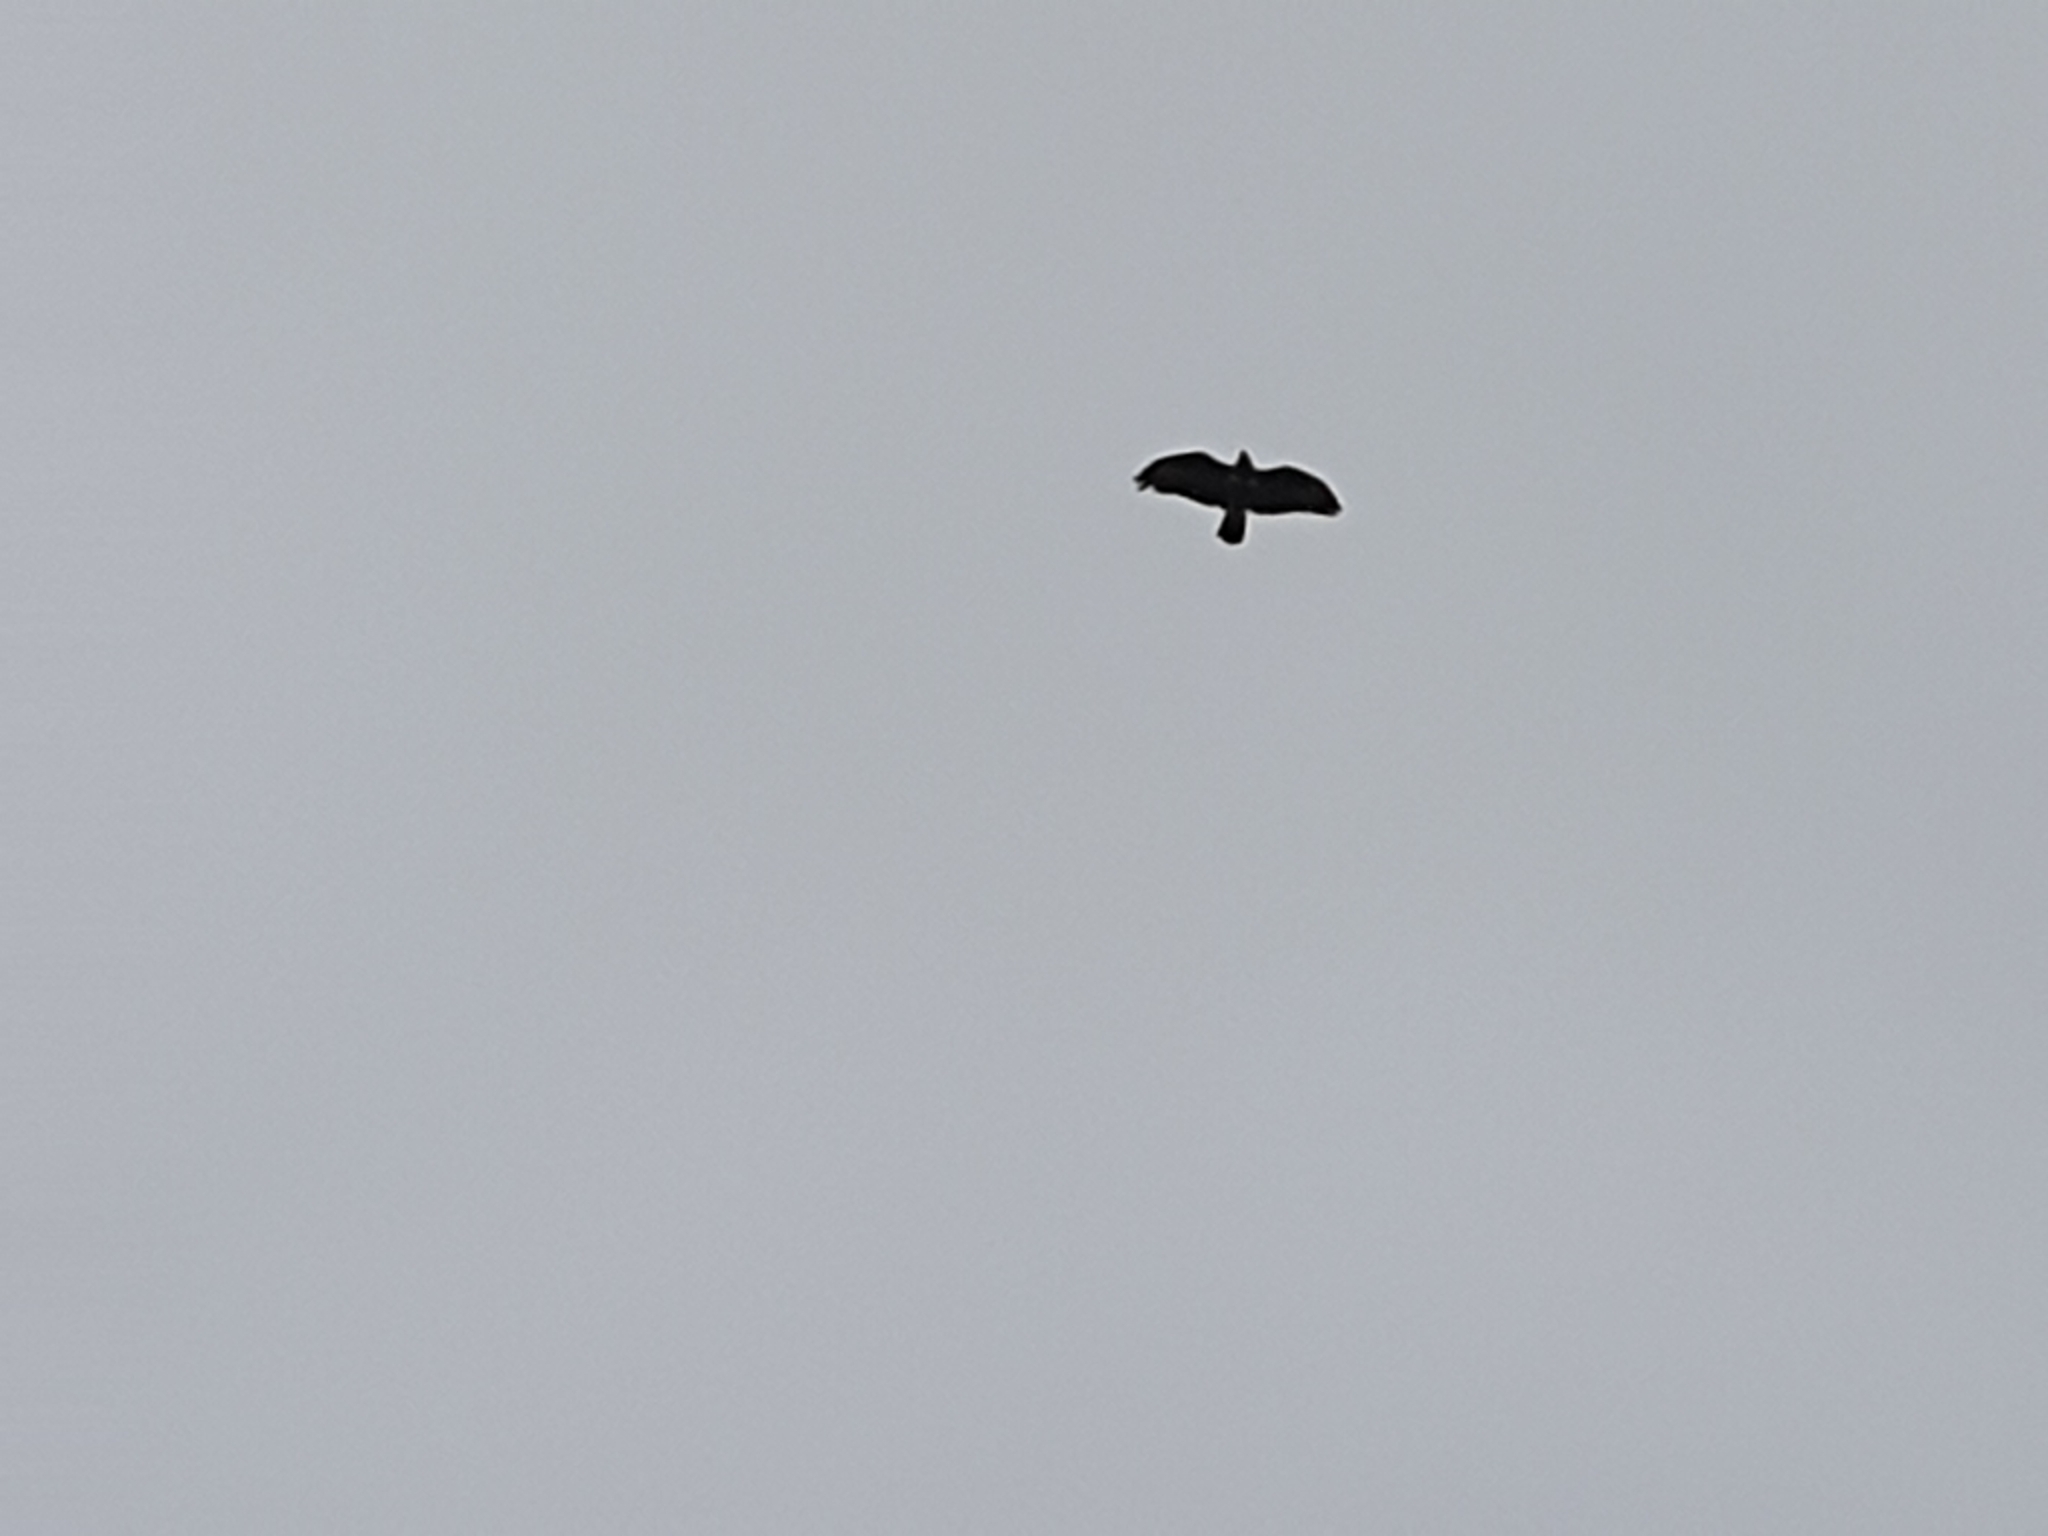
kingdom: Animalia
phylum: Chordata
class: Aves
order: Accipitriformes
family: Accipitridae
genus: Buteo
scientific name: Buteo buteo
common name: Common buzzard
